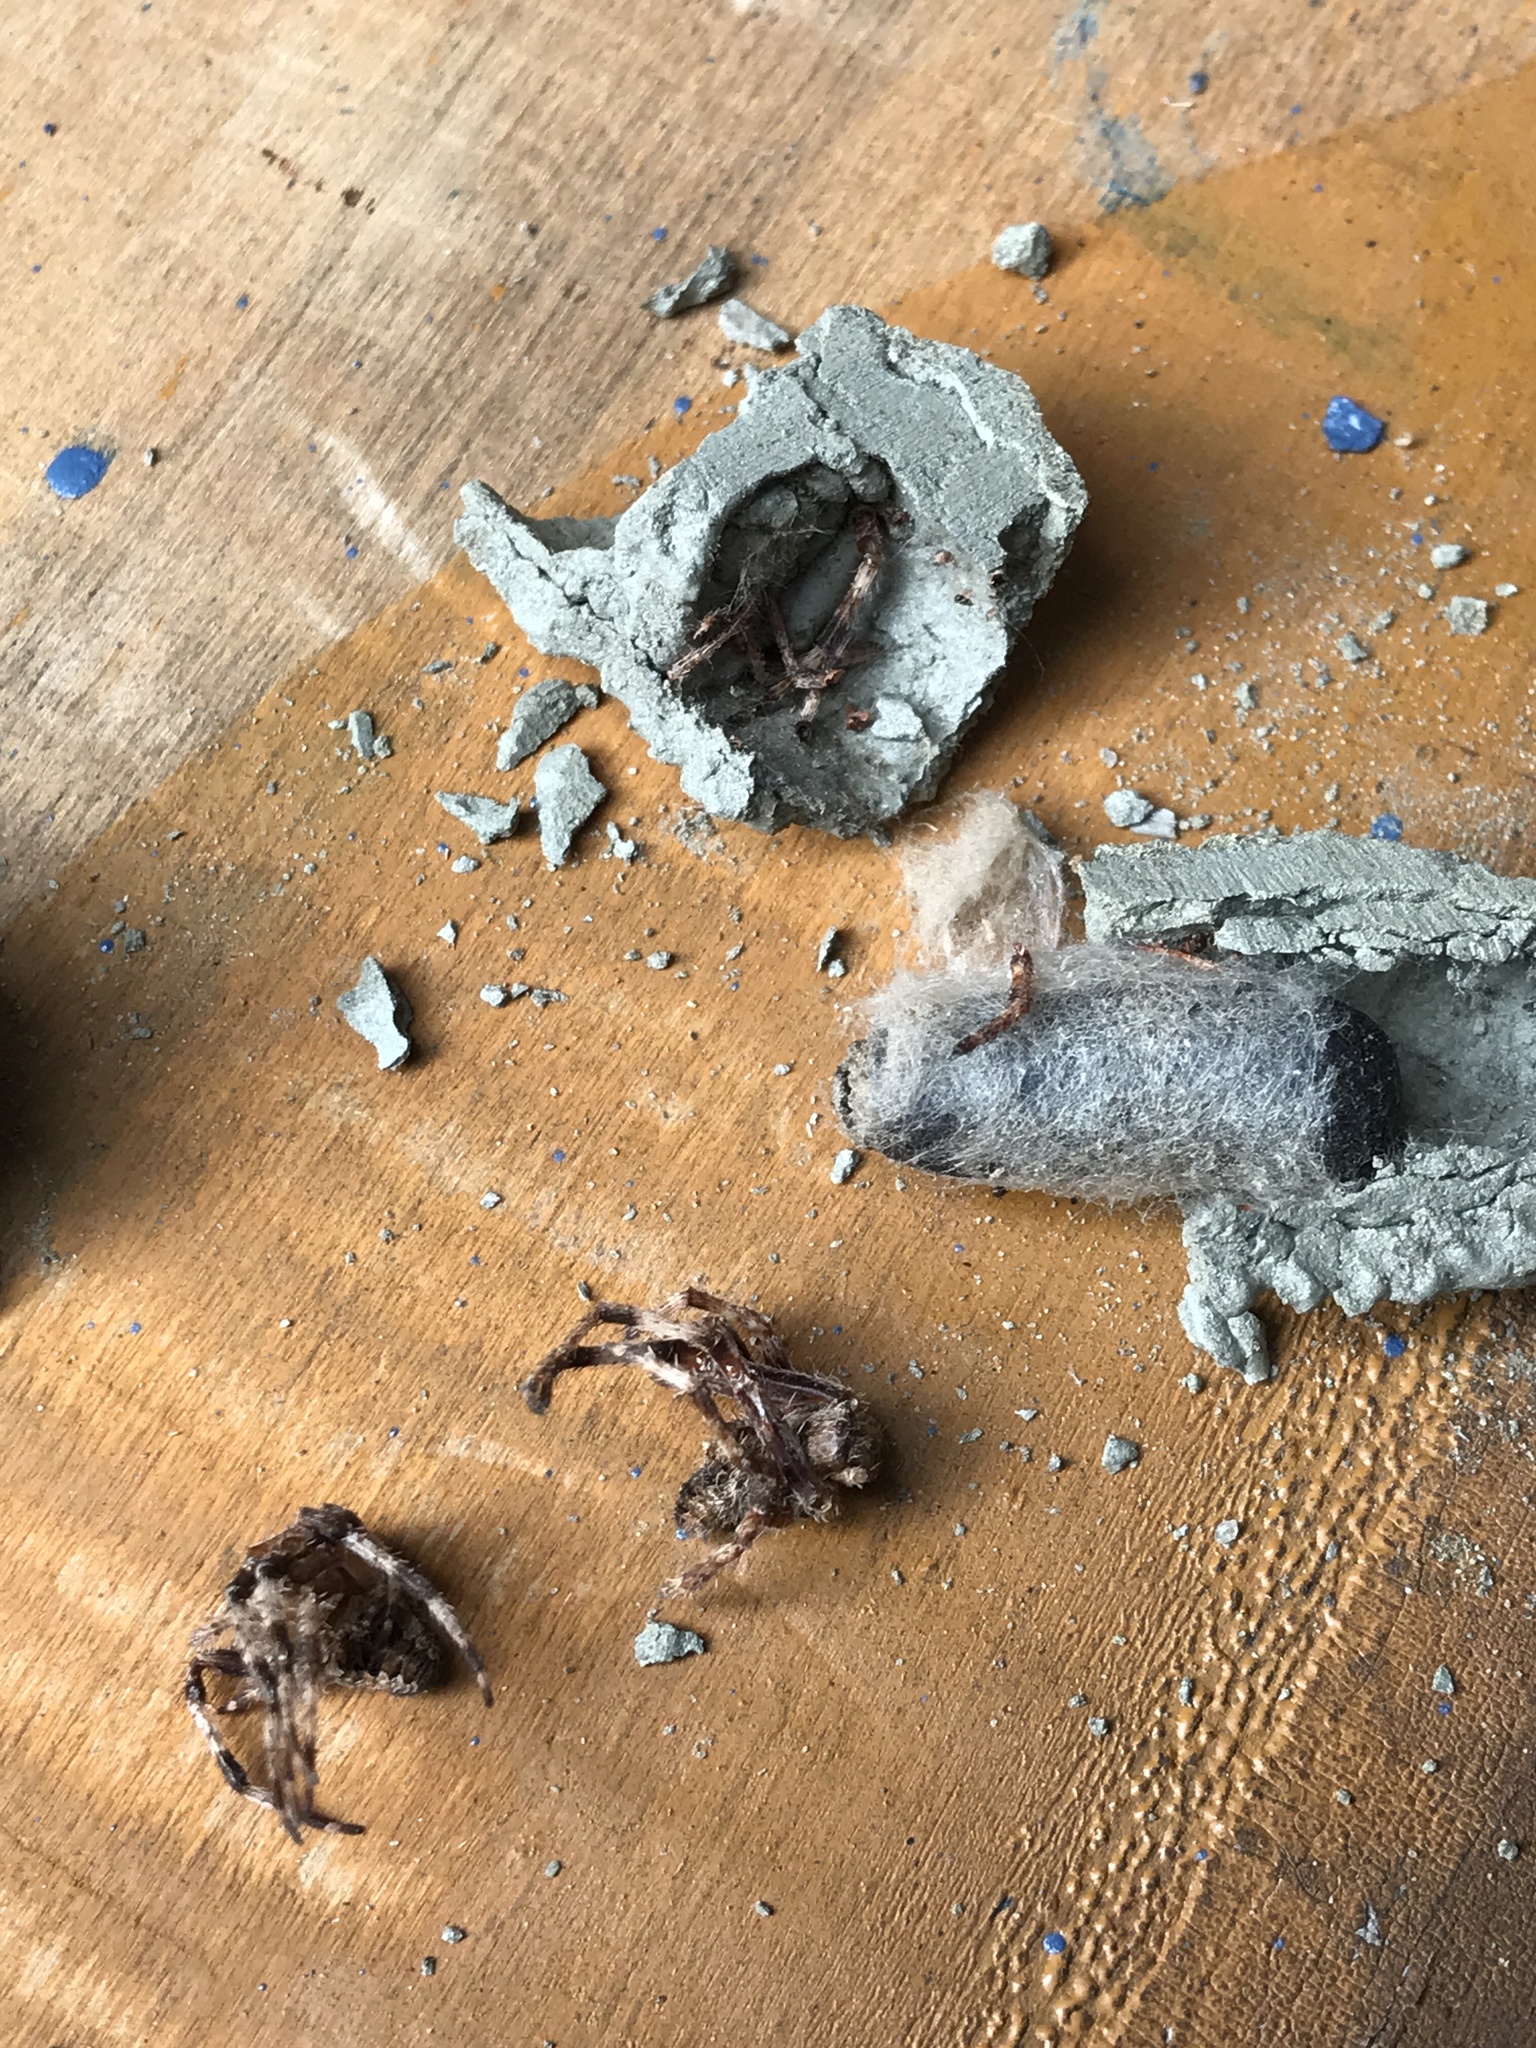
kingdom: Animalia
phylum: Arthropoda
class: Insecta
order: Hymenoptera
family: Crabronidae
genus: Trypoxylon
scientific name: Trypoxylon politum
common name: Organ-pipe mud-dauber wasp
